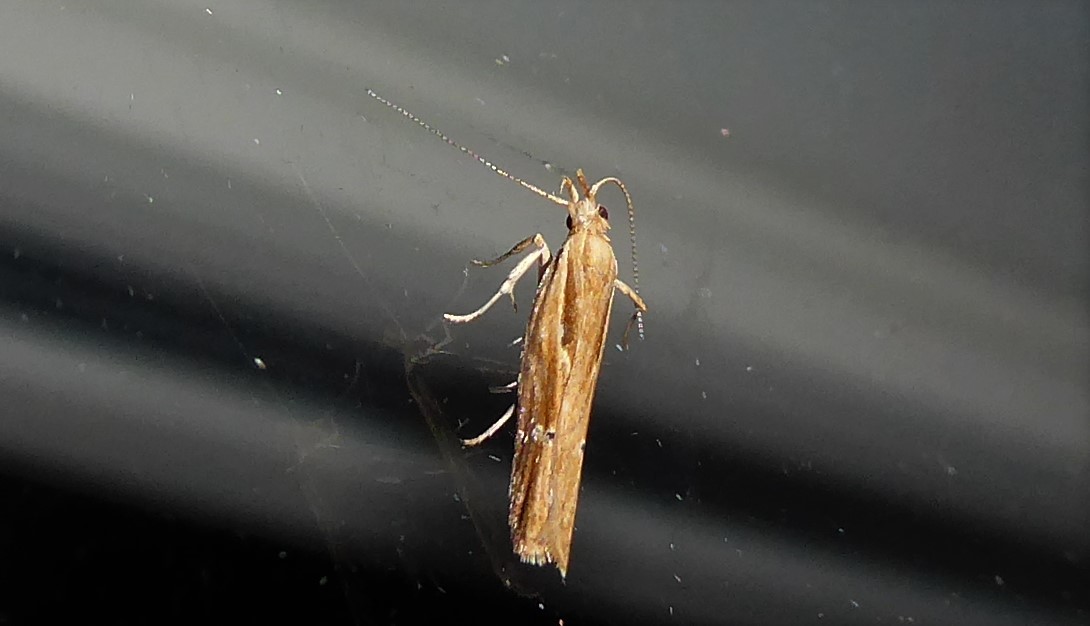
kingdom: Animalia
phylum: Arthropoda
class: Insecta
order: Lepidoptera
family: Depressariidae
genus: Eutorna
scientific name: Eutorna symmorpha
